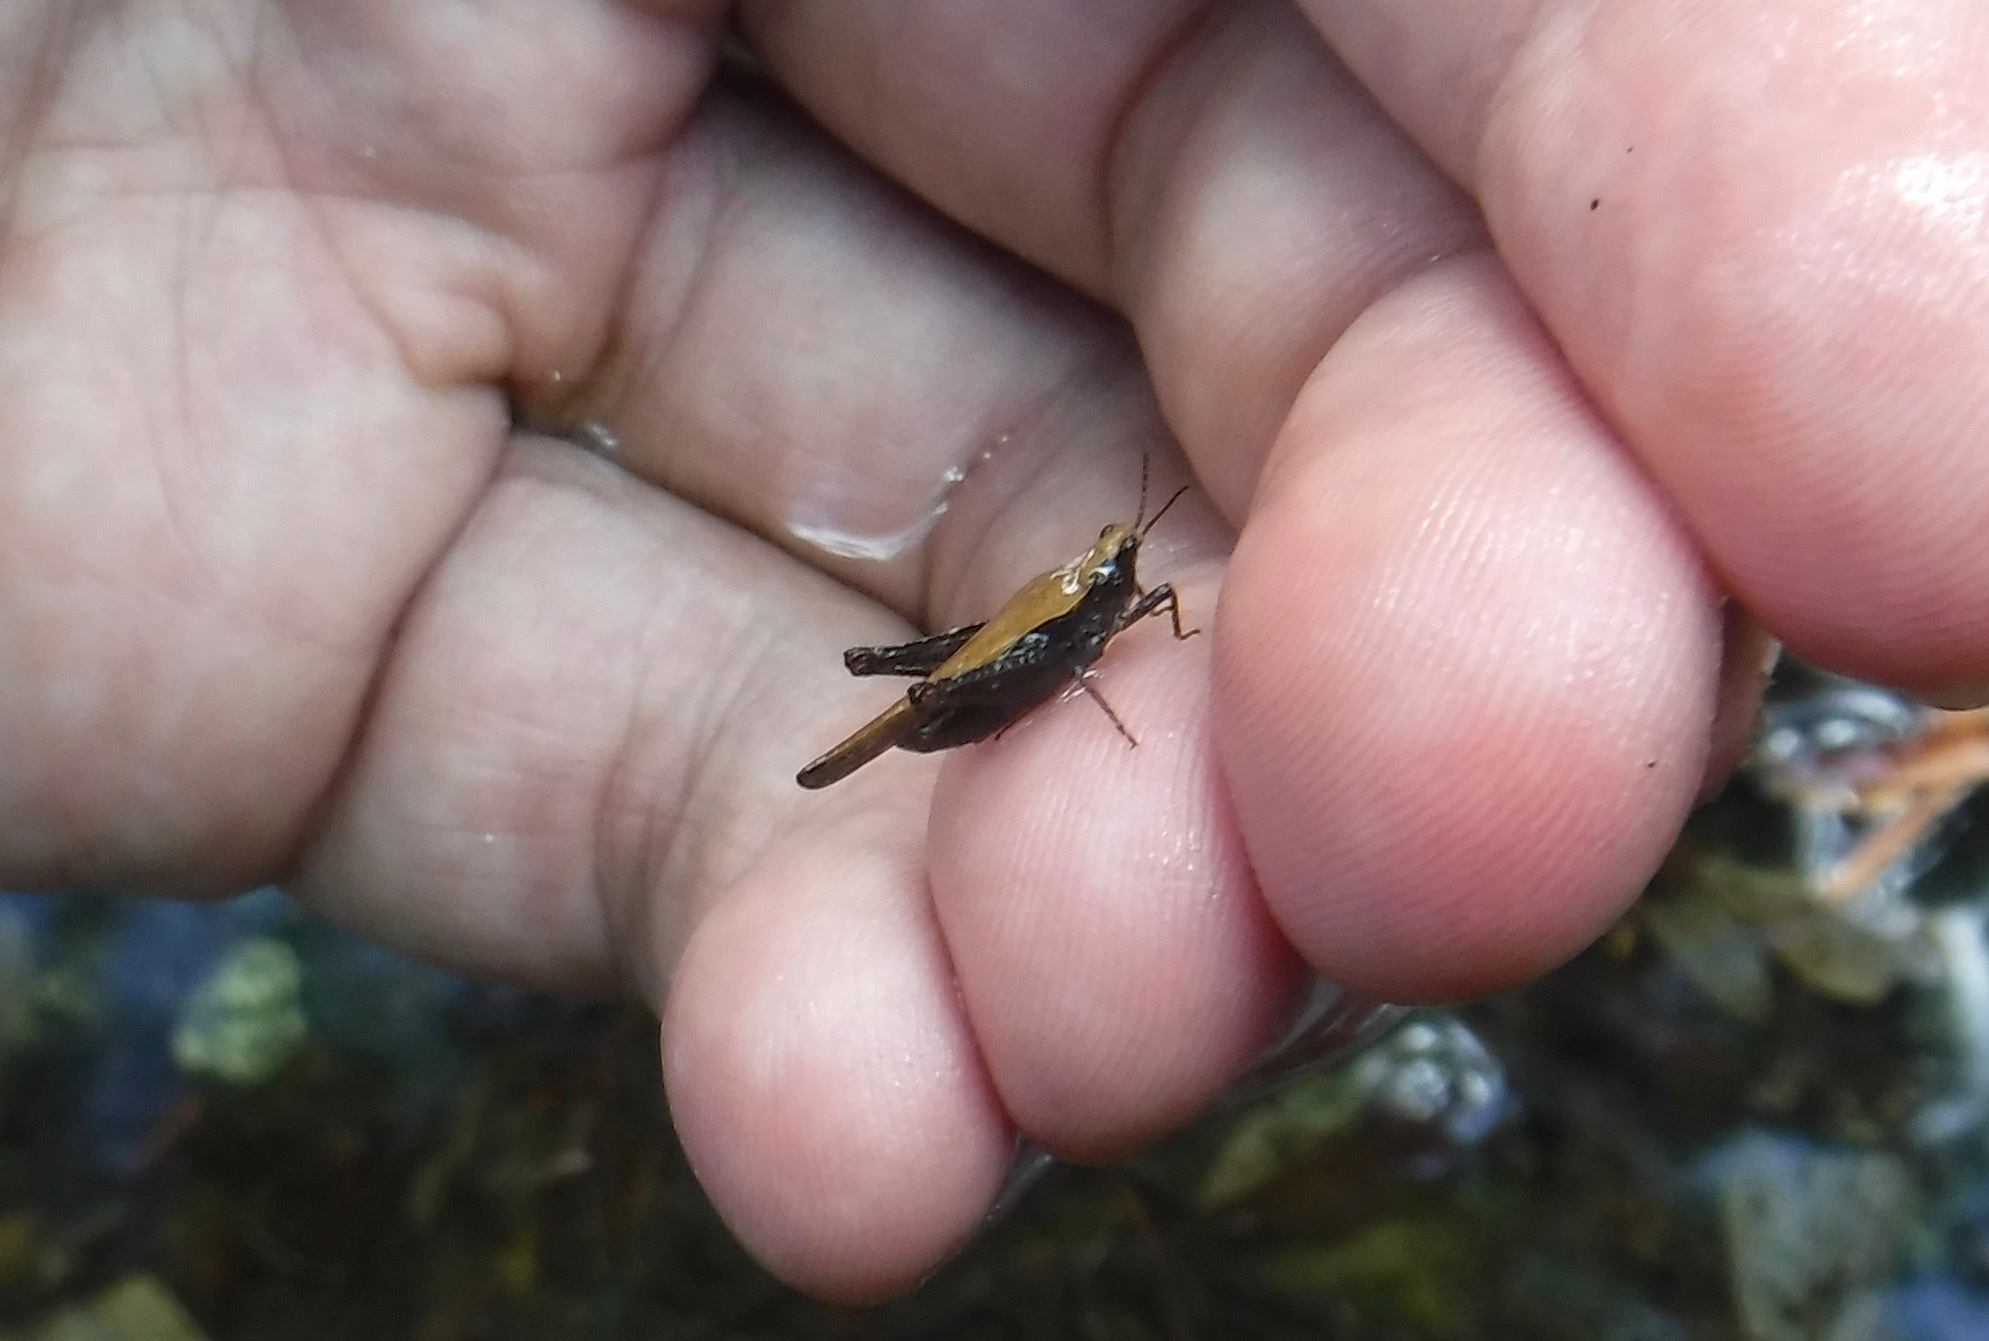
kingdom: Animalia
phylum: Arthropoda
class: Insecta
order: Orthoptera
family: Tetrigidae
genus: Tetrix
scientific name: Tetrix subulata
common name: Slender ground-hopper
